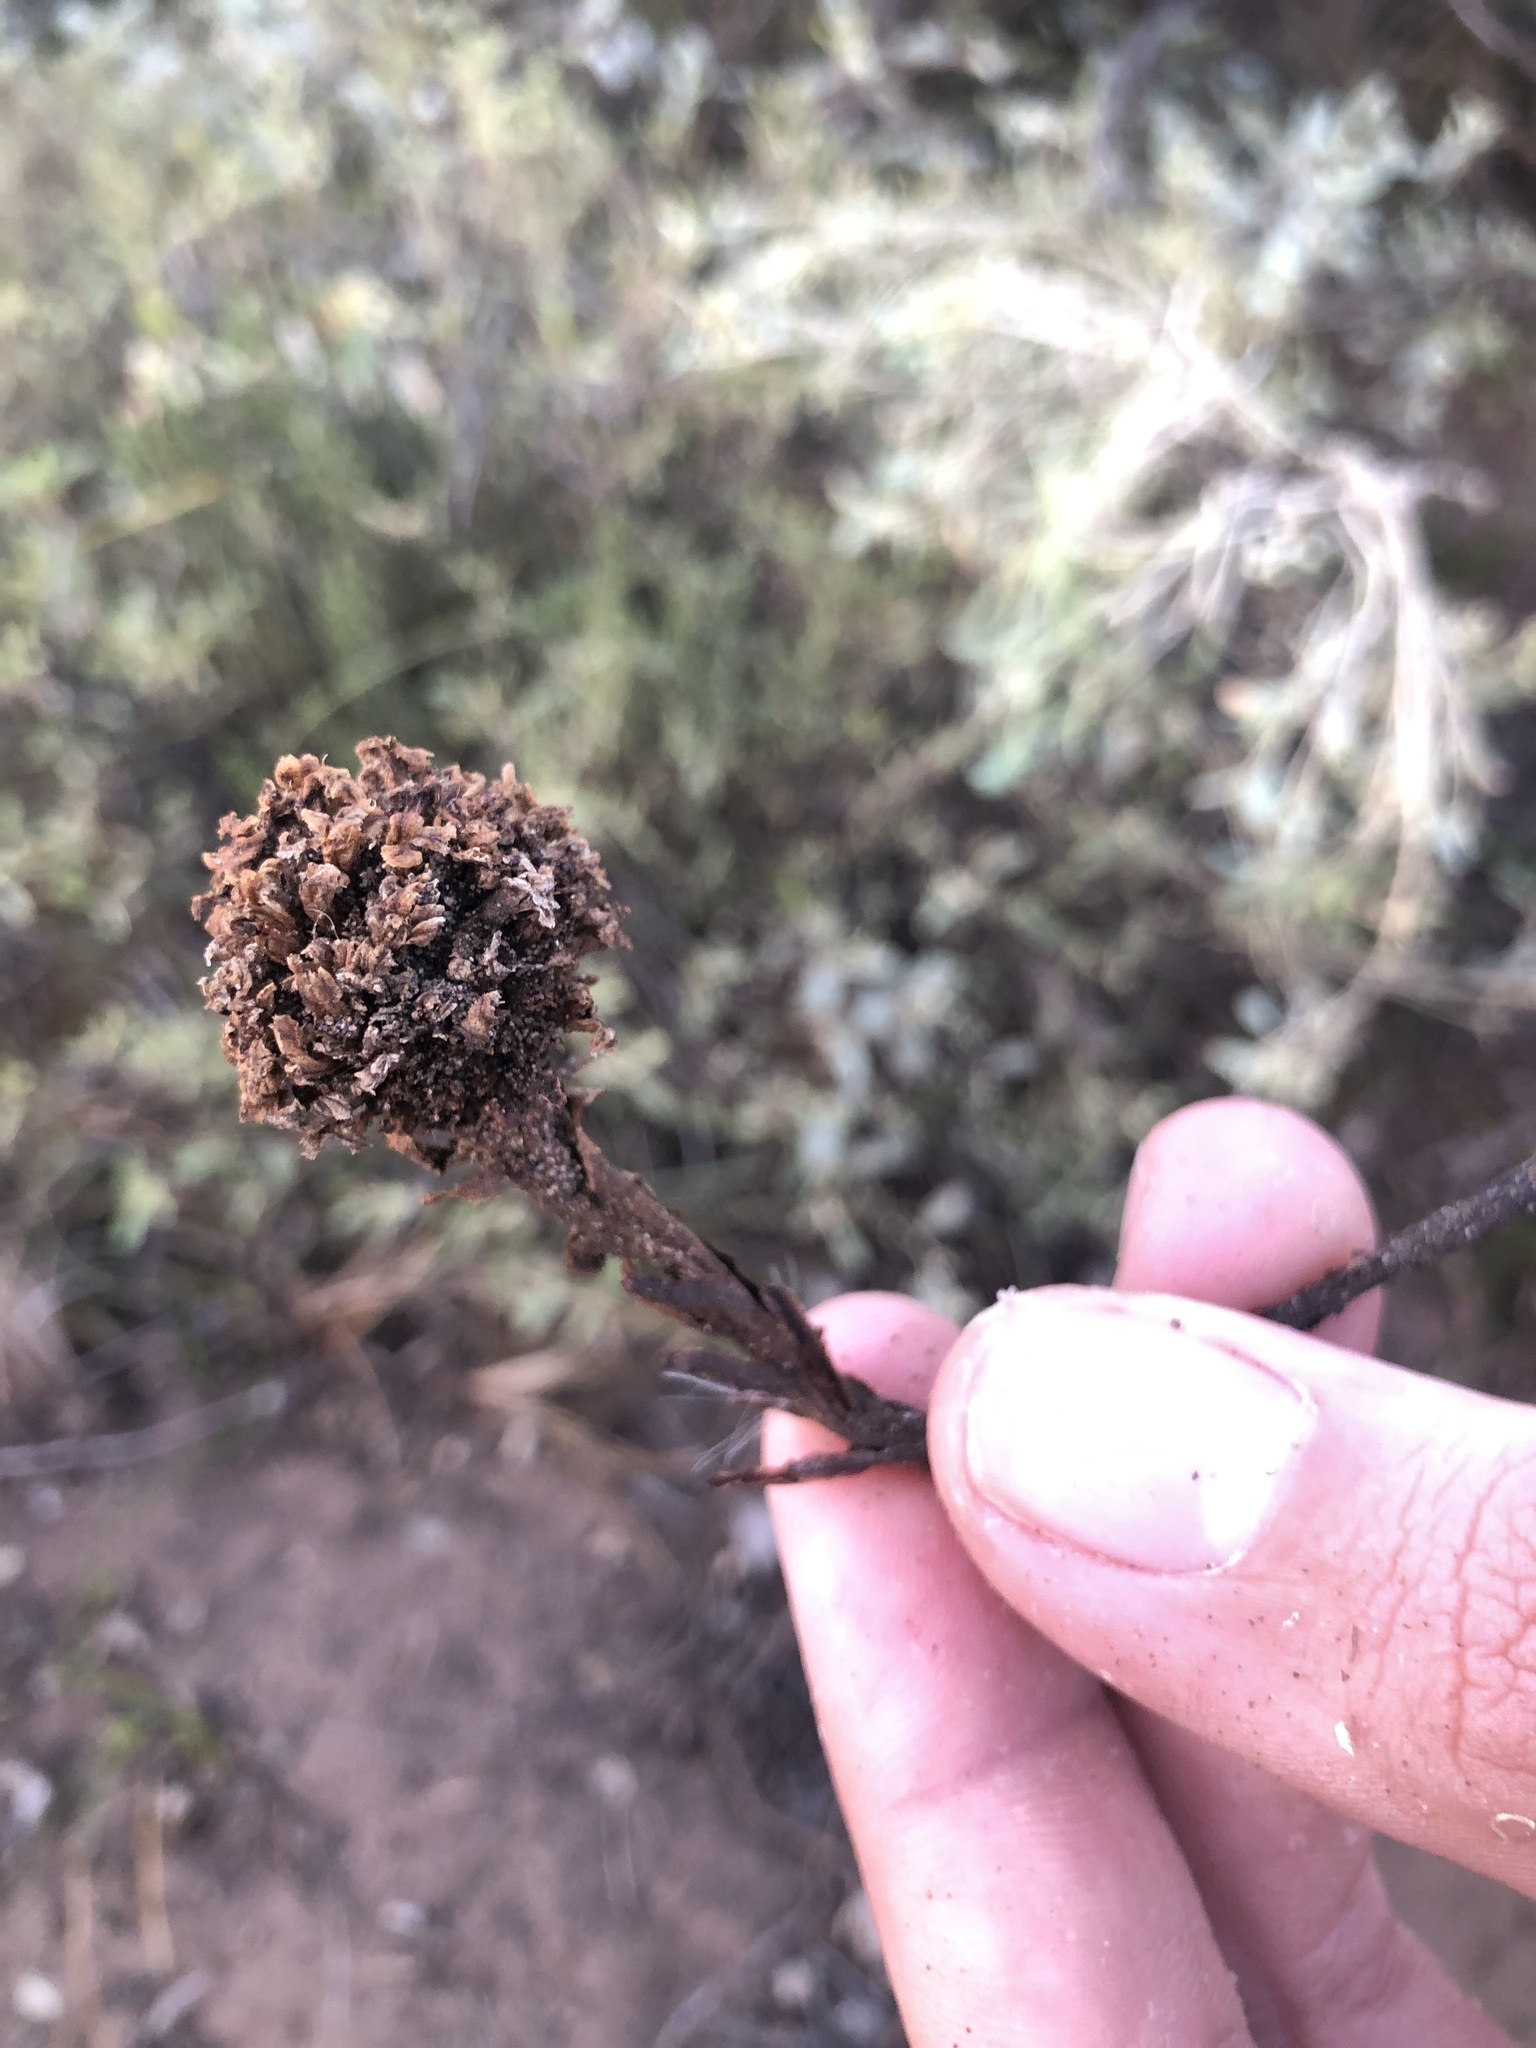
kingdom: Plantae
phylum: Tracheophyta
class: Magnoliopsida
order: Boraginales
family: Lennoaceae
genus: Pholisma
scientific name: Pholisma arenarium
